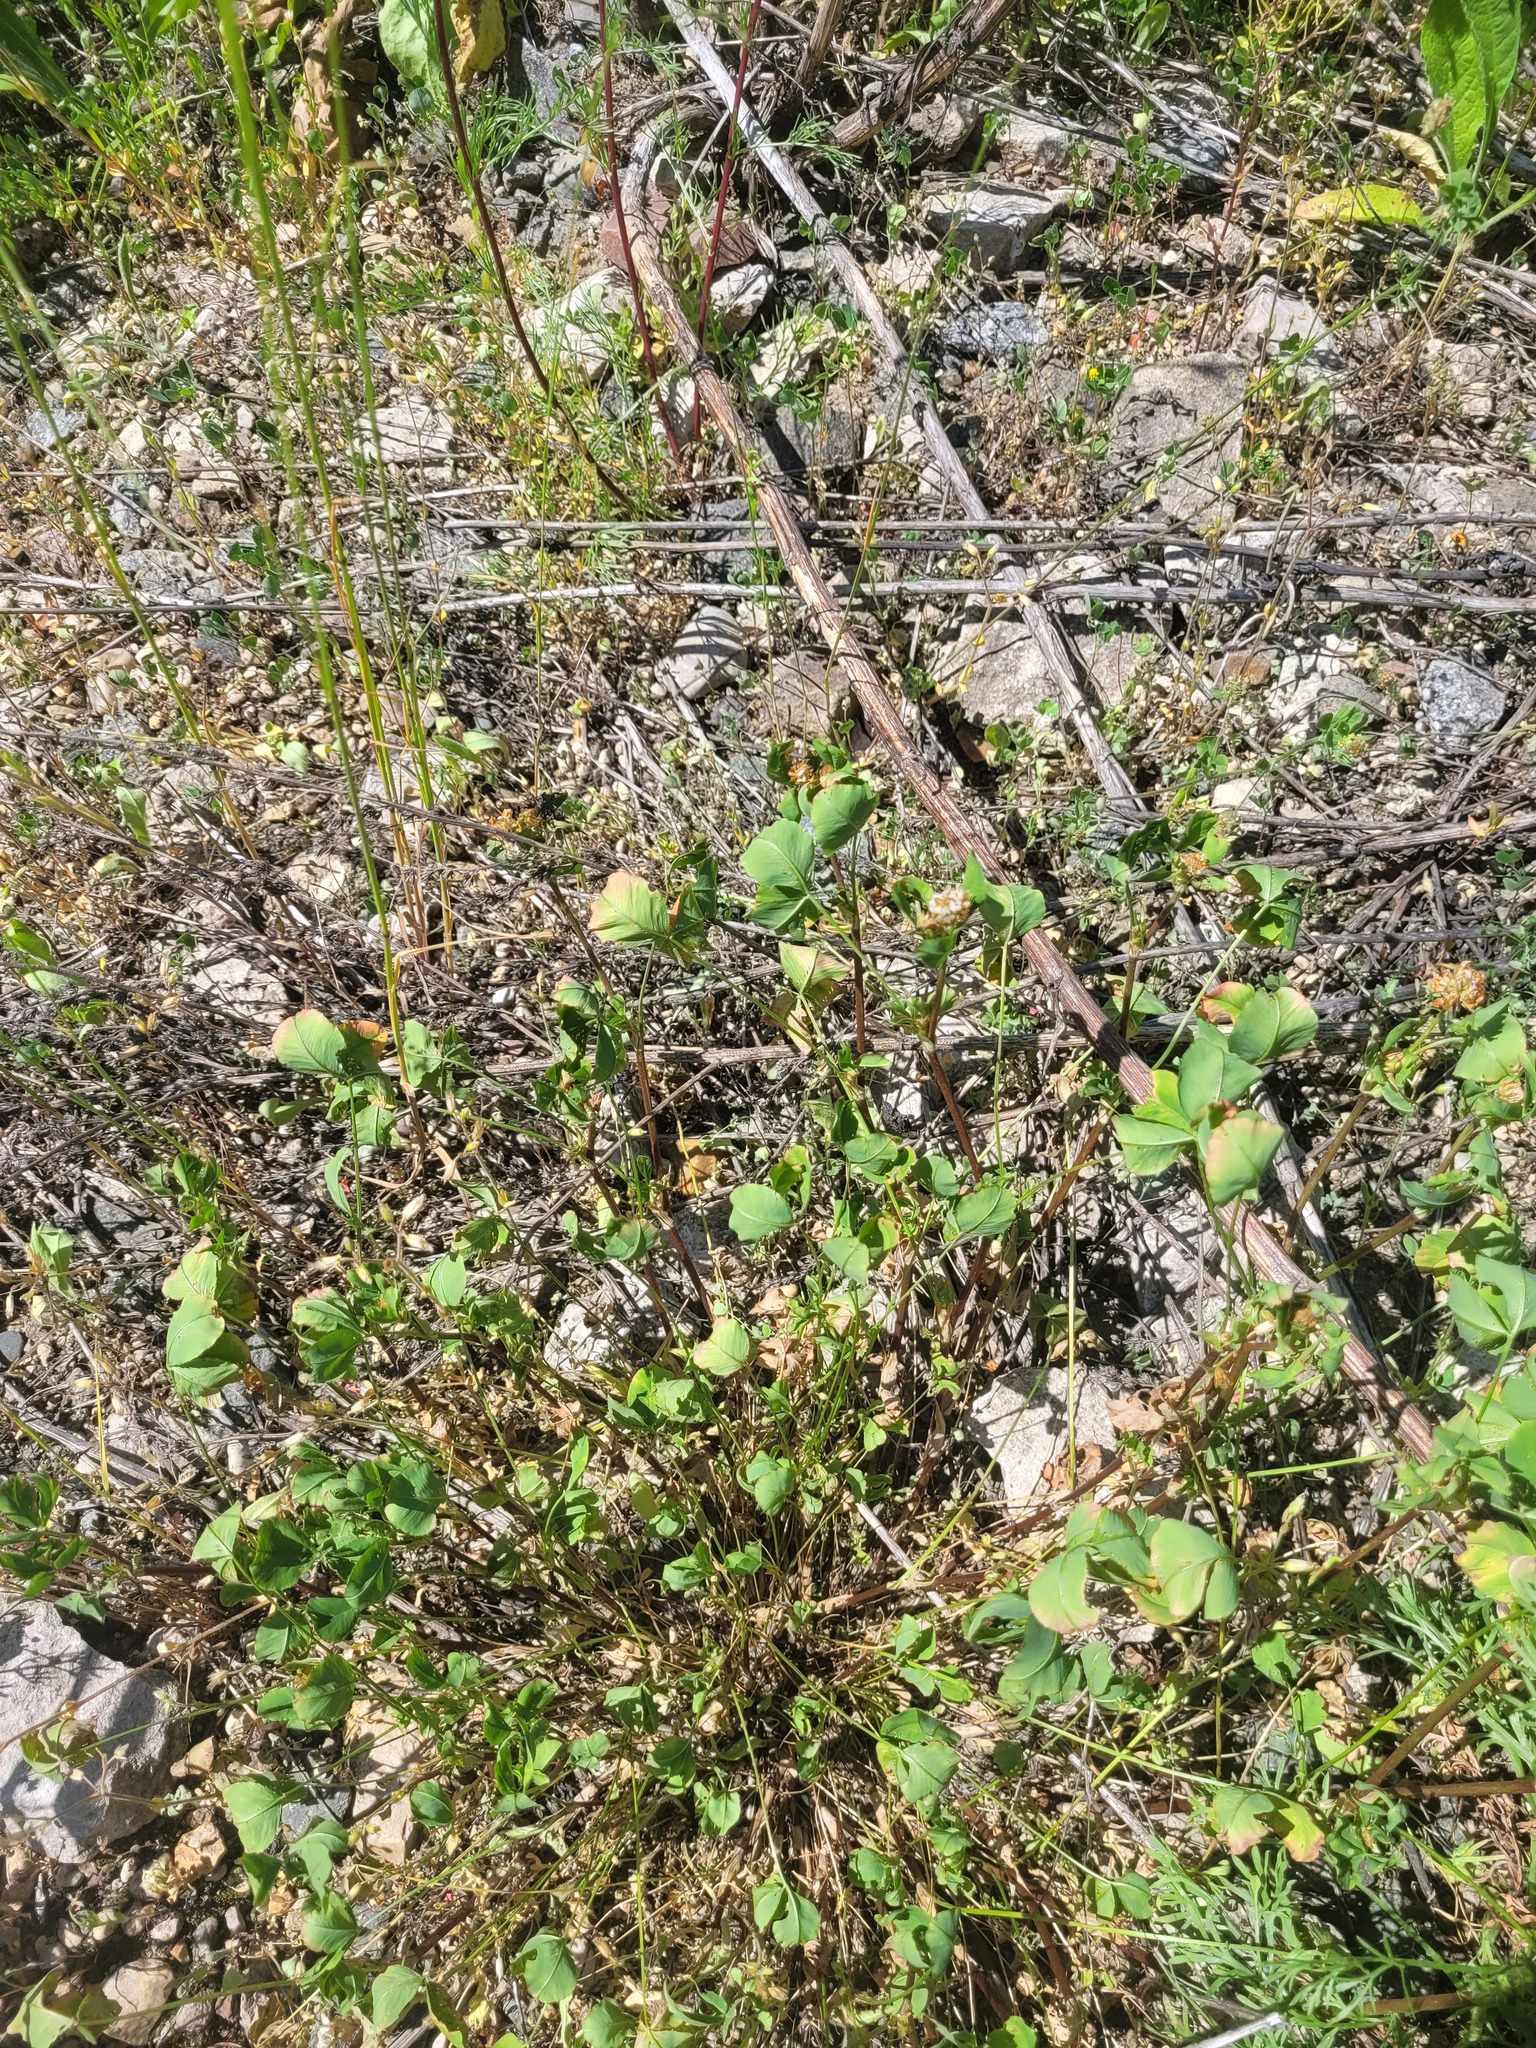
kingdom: Plantae
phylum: Tracheophyta
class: Magnoliopsida
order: Fabales
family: Fabaceae
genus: Trifolium
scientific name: Trifolium hybridum
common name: Alsike clover
